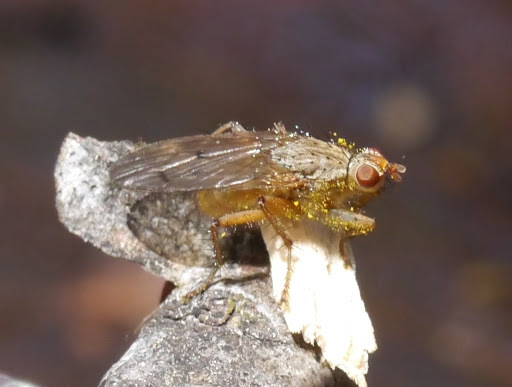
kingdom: Animalia
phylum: Arthropoda
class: Insecta
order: Diptera
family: Scathophagidae
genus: Scathophaga
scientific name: Scathophaga stercoraria
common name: Yellow dung fly
